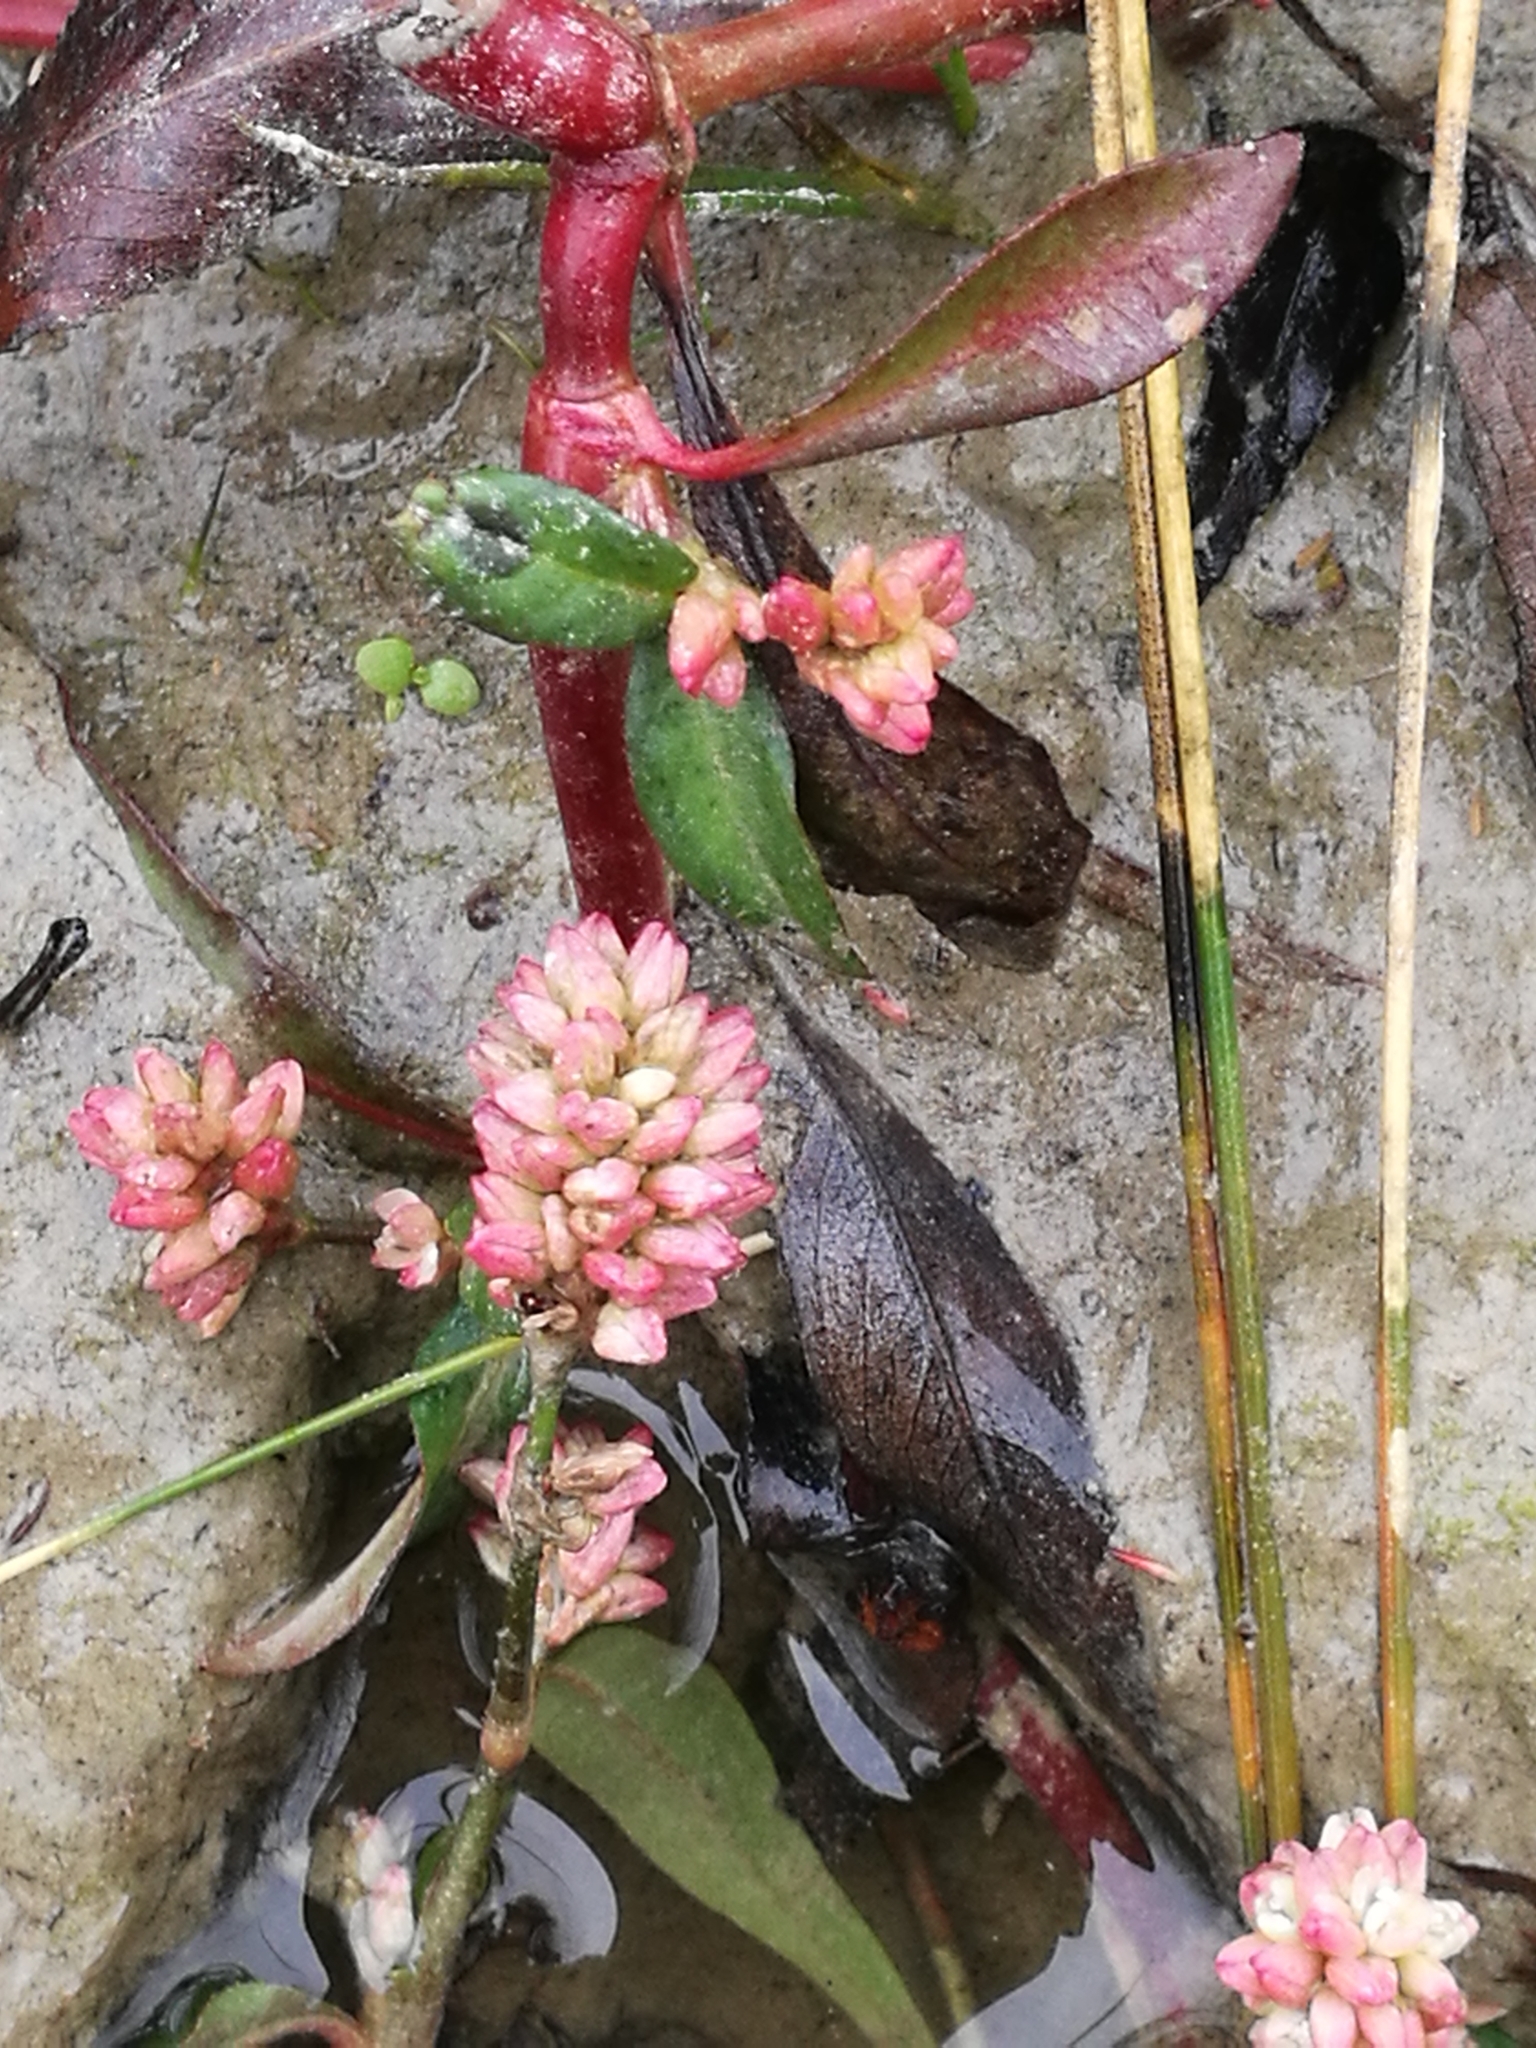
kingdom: Plantae
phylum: Tracheophyta
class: Magnoliopsida
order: Caryophyllales
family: Polygonaceae
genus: Persicaria
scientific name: Persicaria maculosa
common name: Redshank
